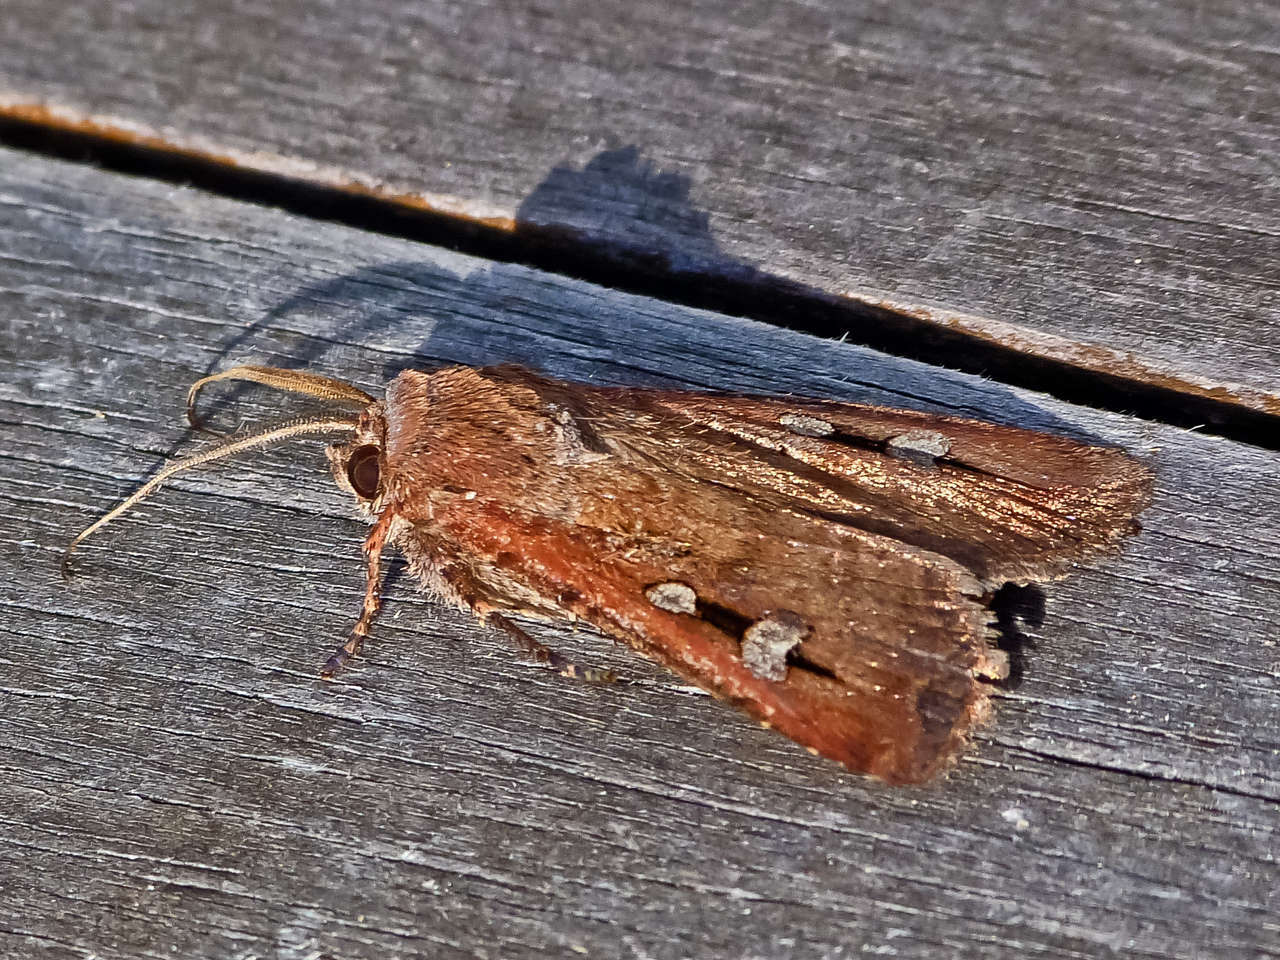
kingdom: Animalia
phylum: Arthropoda
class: Insecta
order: Lepidoptera
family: Noctuidae
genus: Agrotis
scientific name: Agrotis infusa
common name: Bogong moth
